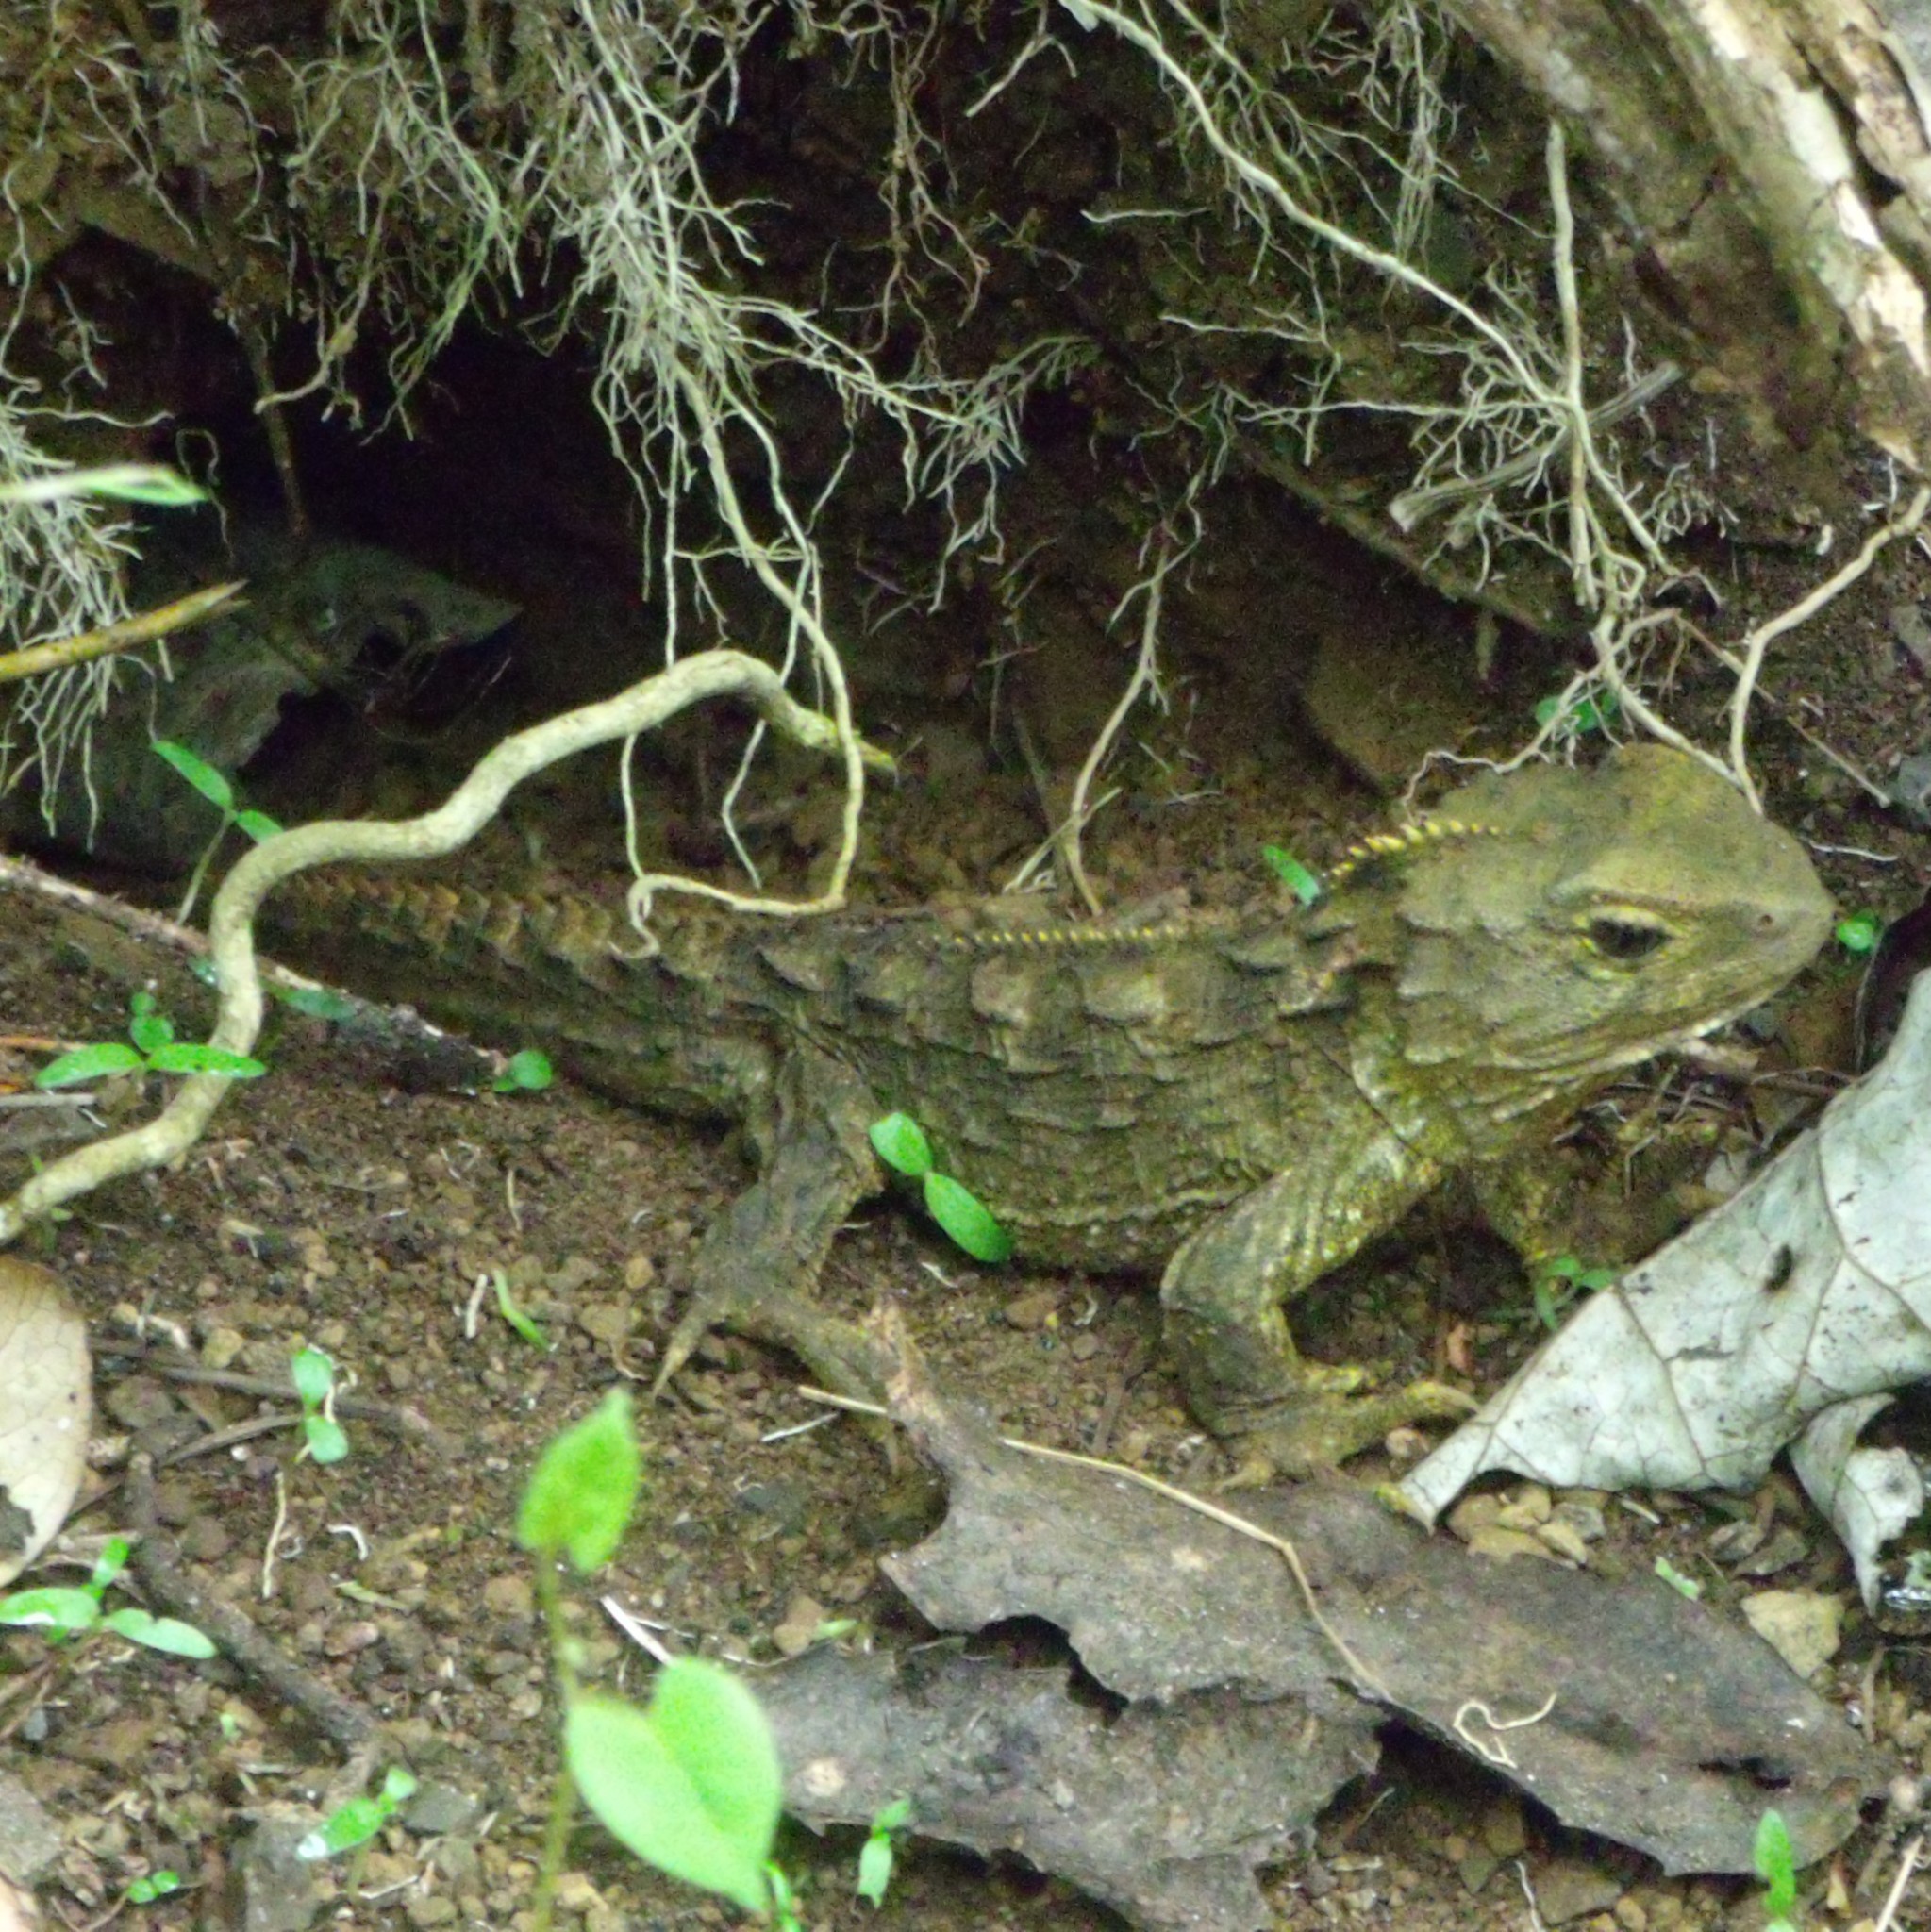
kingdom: Animalia
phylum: Chordata
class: Sphenodontia
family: Sphenodontidae
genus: Sphenodon
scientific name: Sphenodon punctatus
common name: Tuatara
